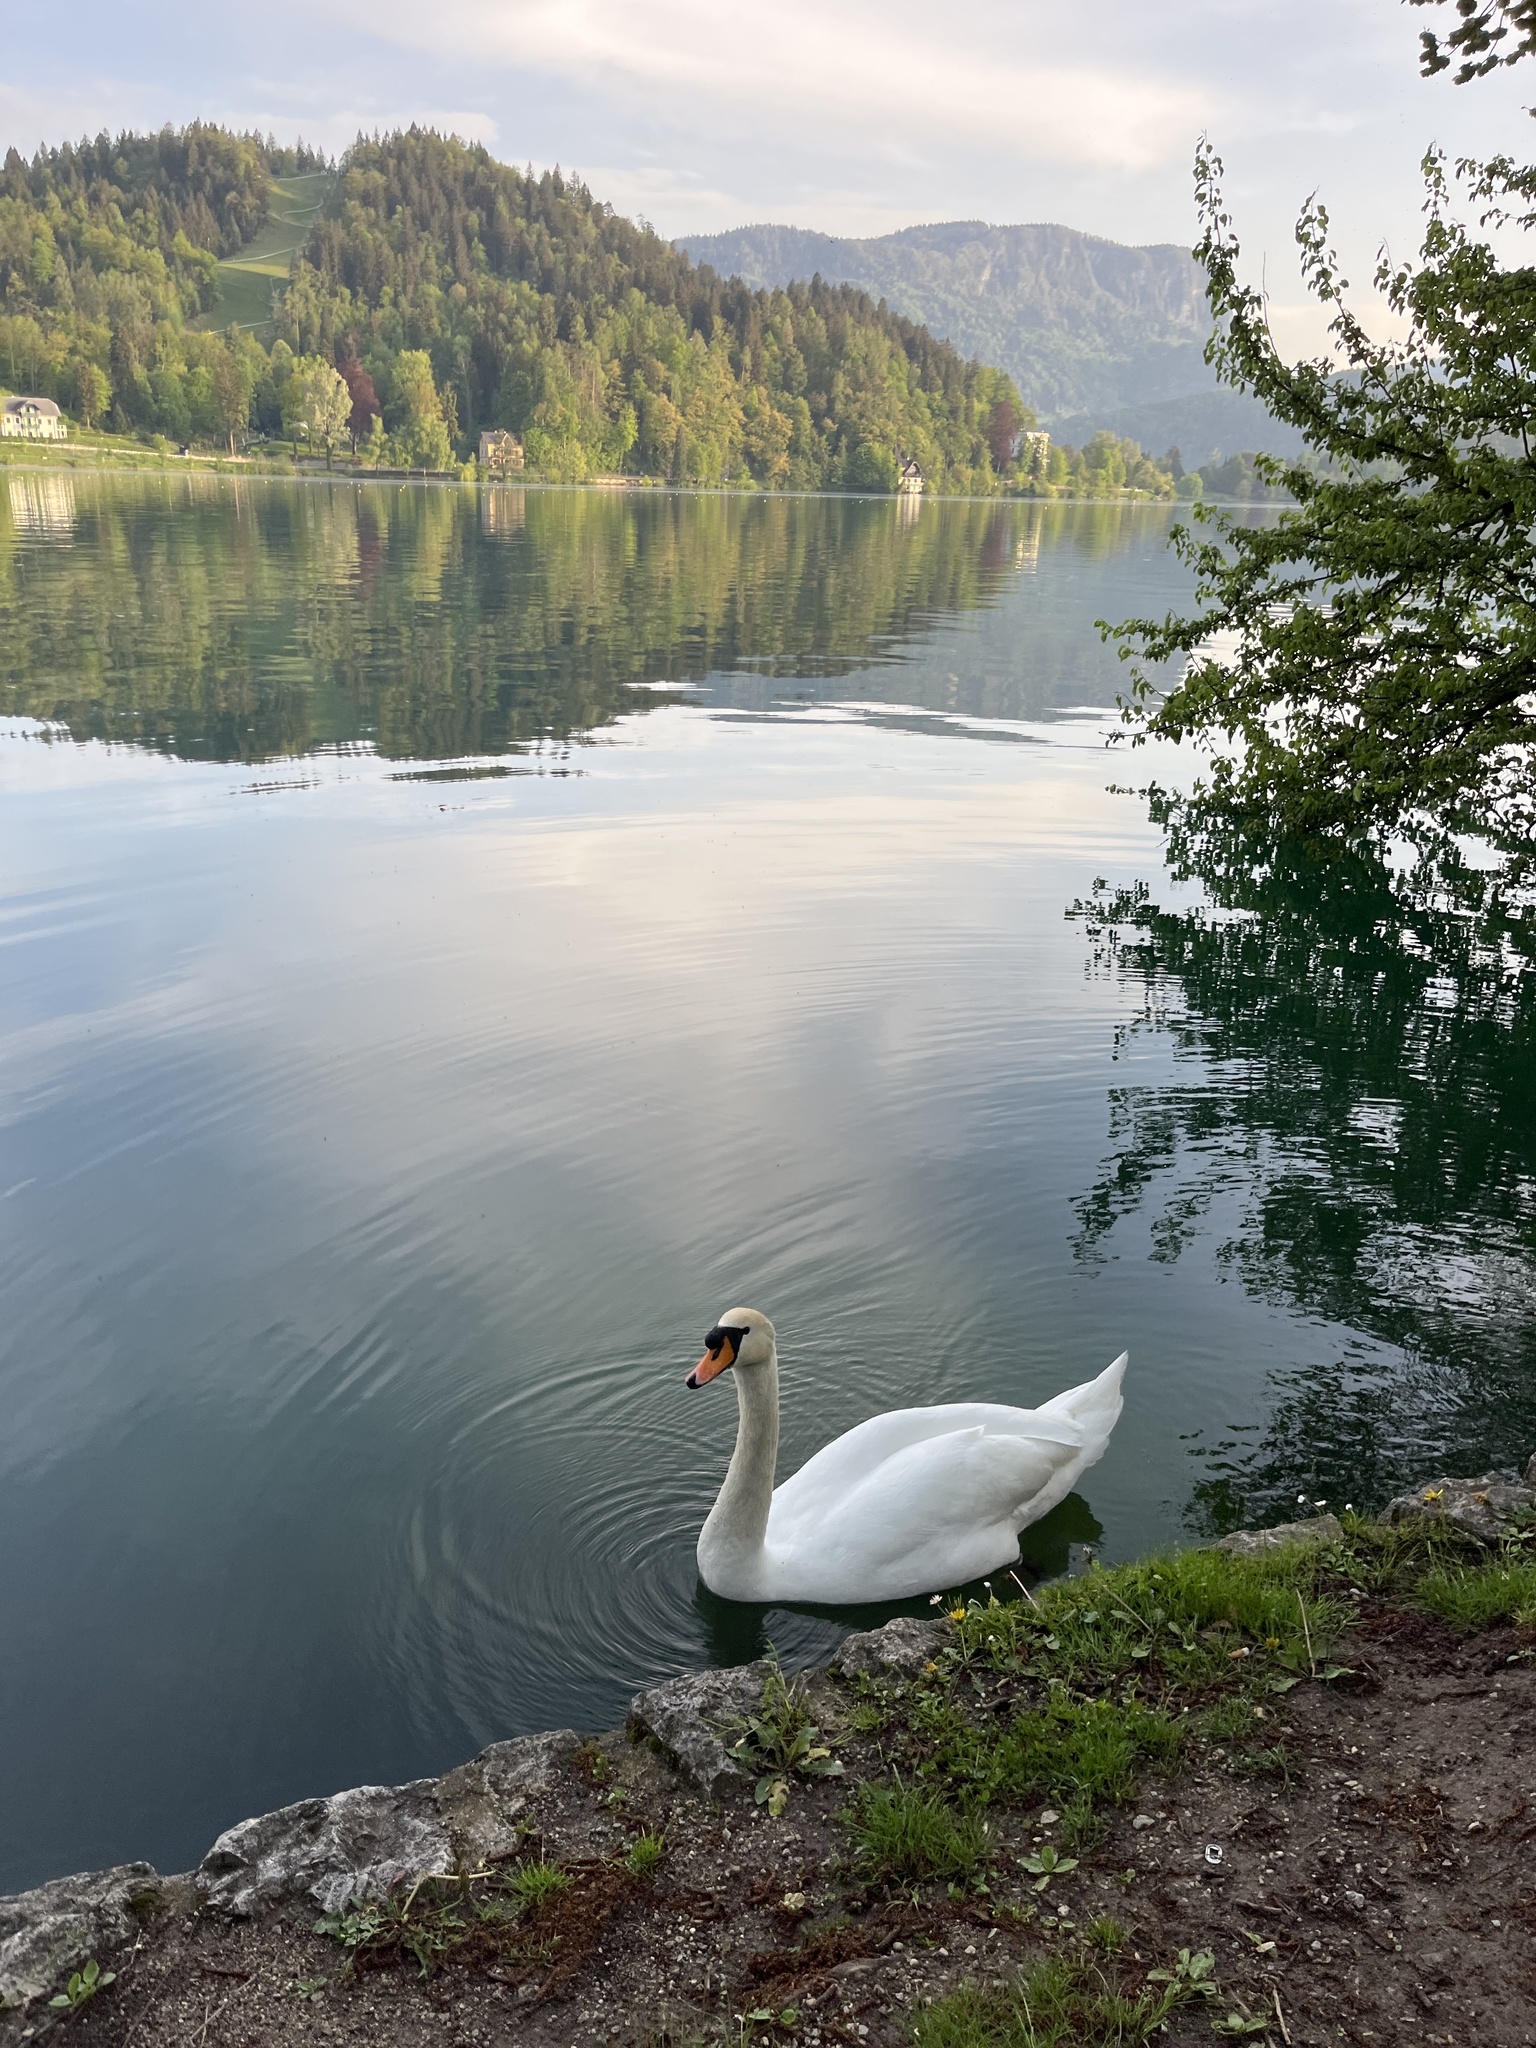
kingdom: Animalia
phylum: Chordata
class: Aves
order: Anseriformes
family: Anatidae
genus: Cygnus
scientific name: Cygnus olor
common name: Mute swan
